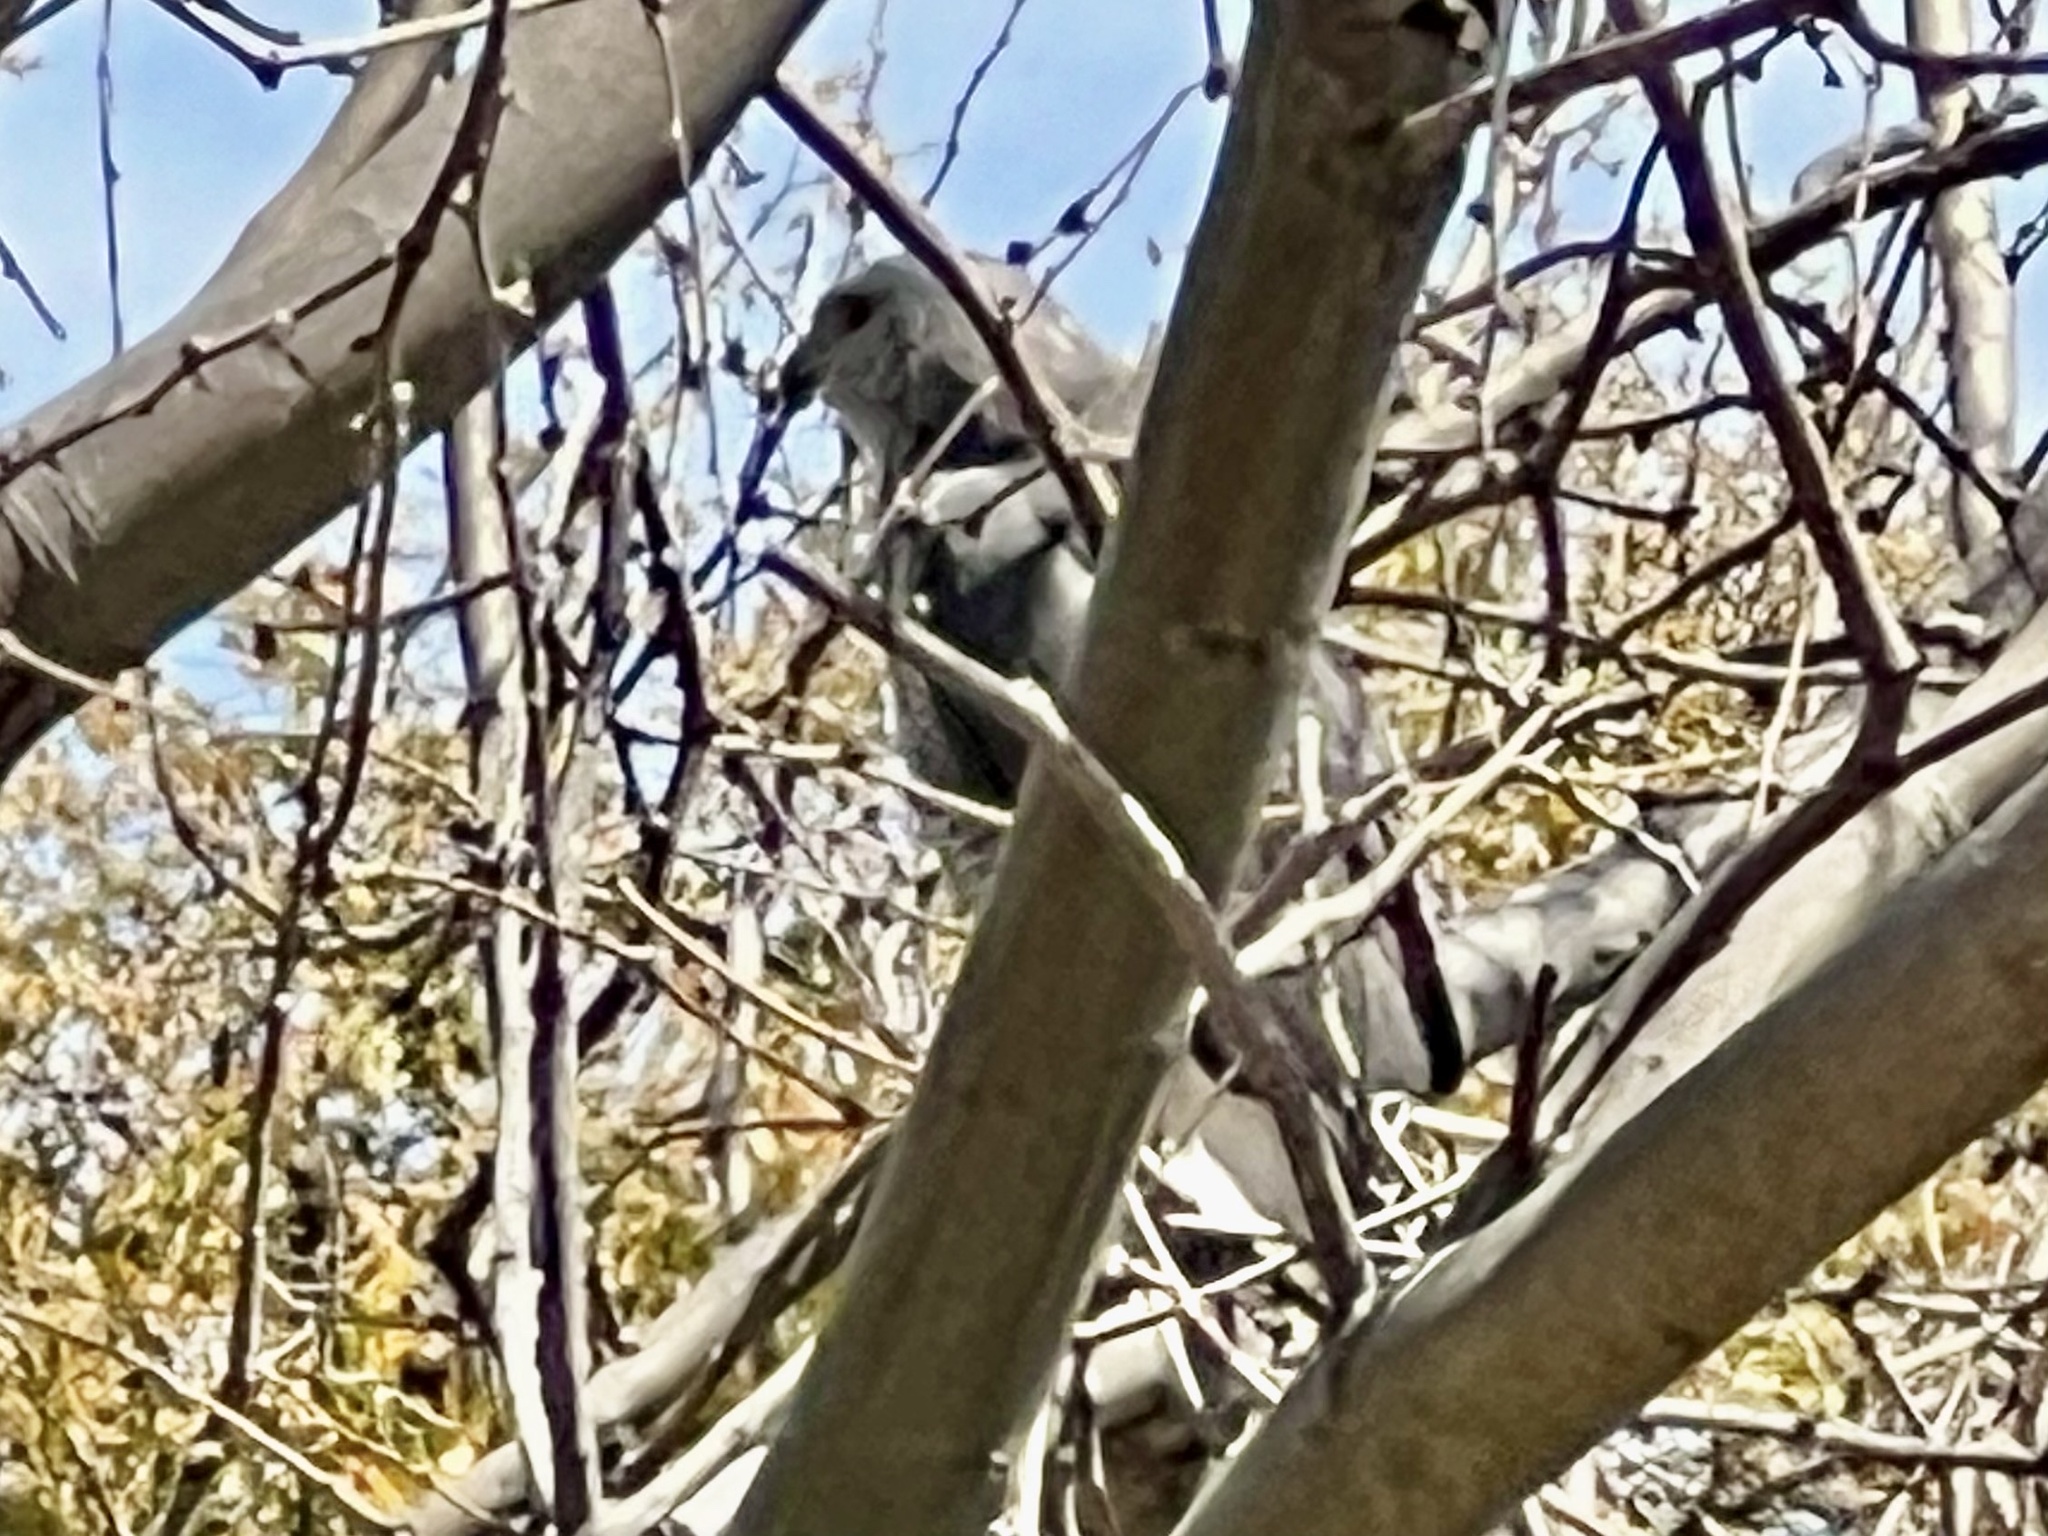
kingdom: Animalia
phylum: Chordata
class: Aves
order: Accipitriformes
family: Accipitridae
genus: Buteo
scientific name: Buteo nitidus
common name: Grey-lined hawk
